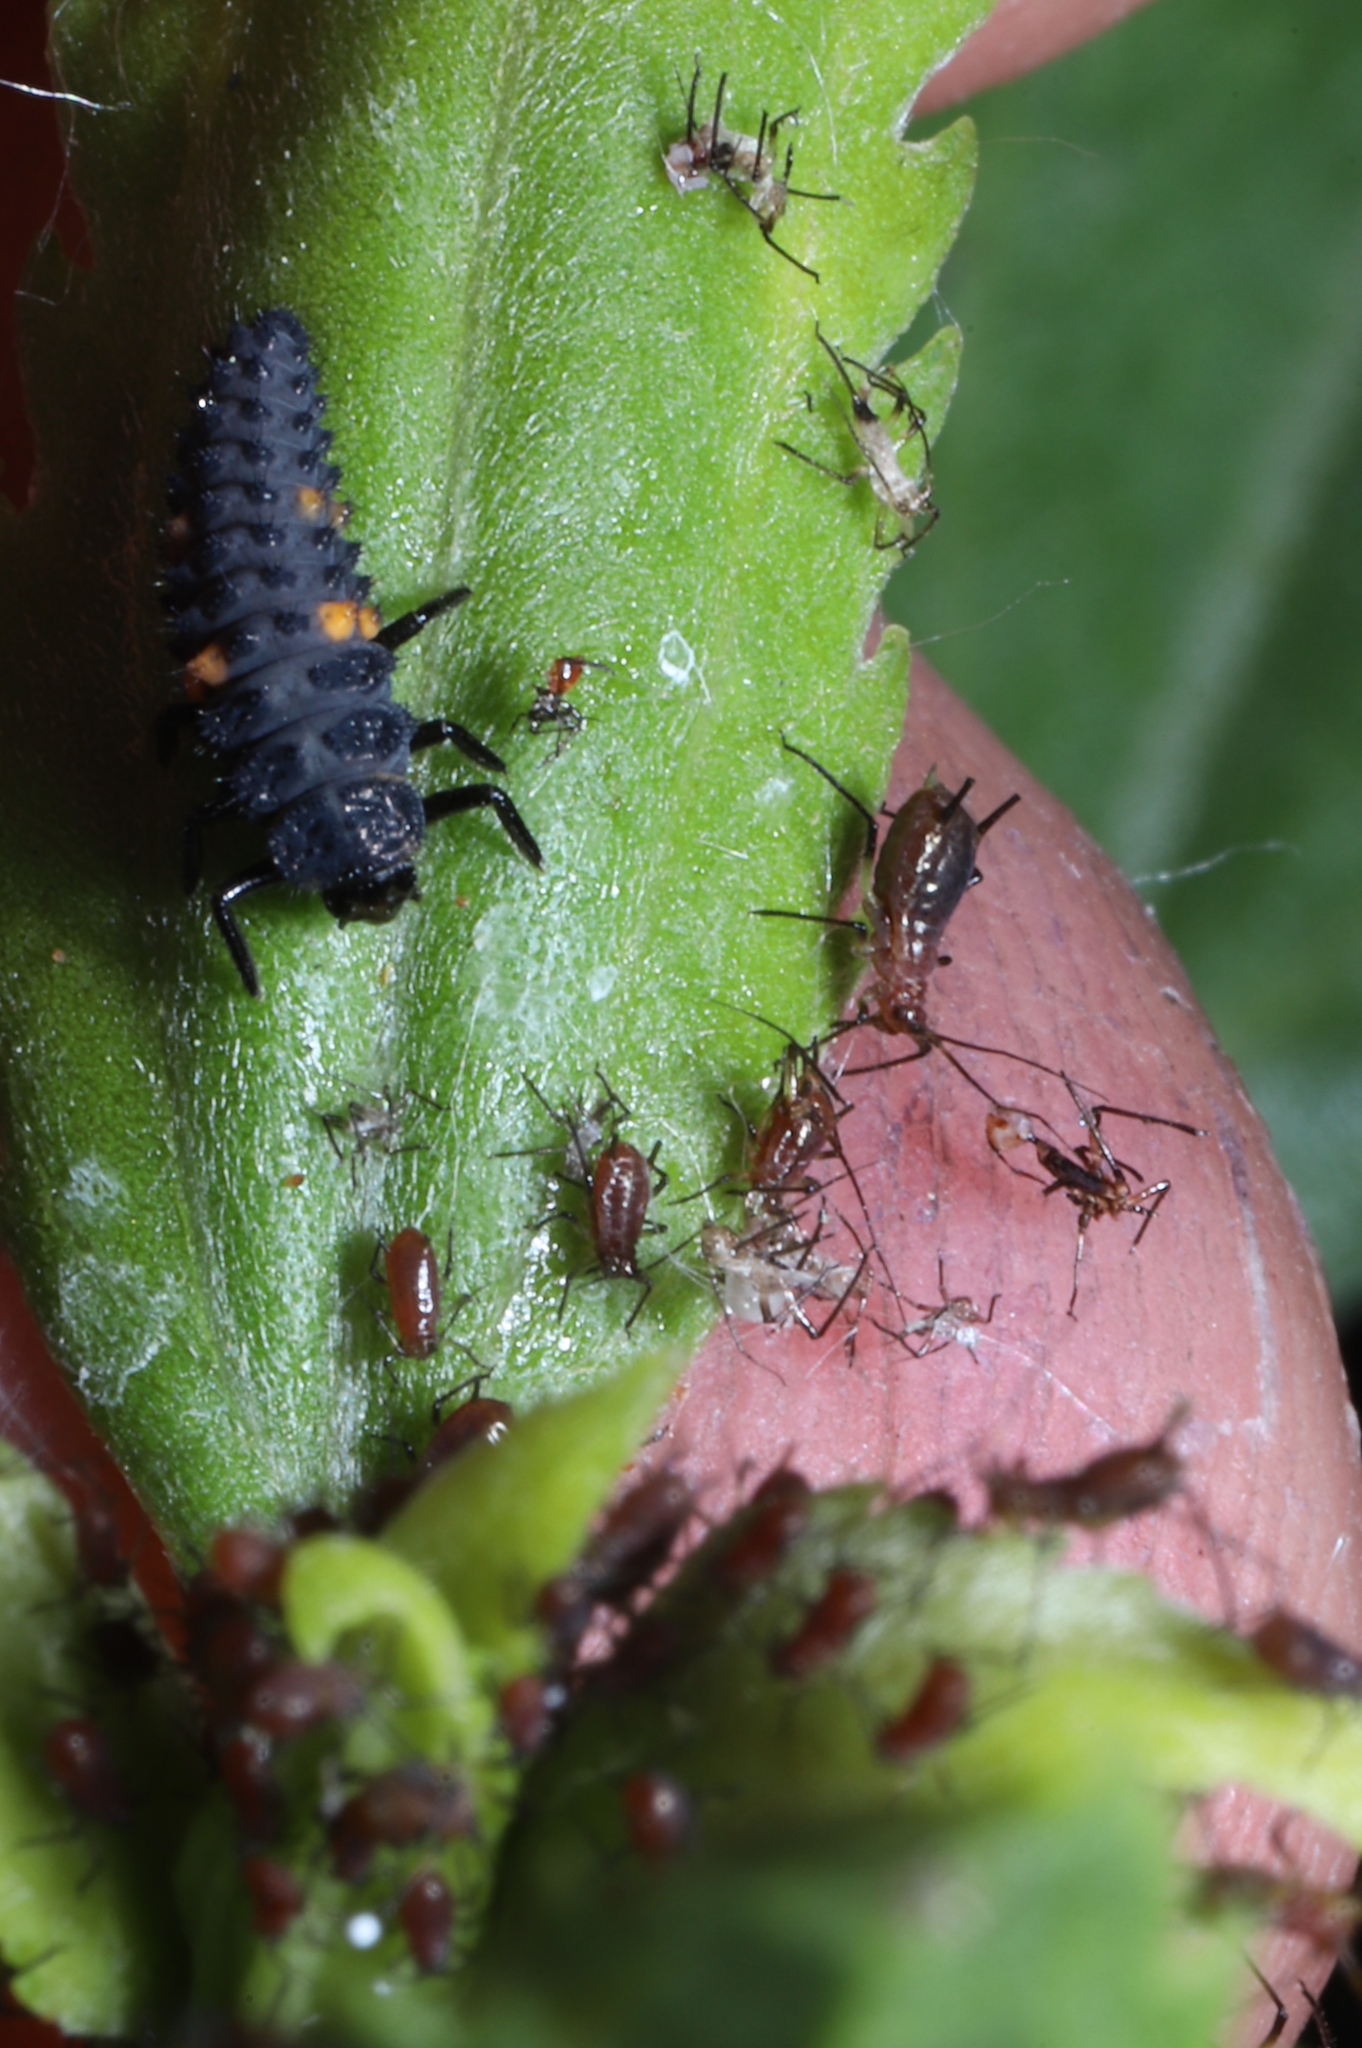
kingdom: Animalia
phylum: Arthropoda
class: Insecta
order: Coleoptera
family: Coccinellidae
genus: Harmonia
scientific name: Harmonia axyridis
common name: Harlequin ladybird
